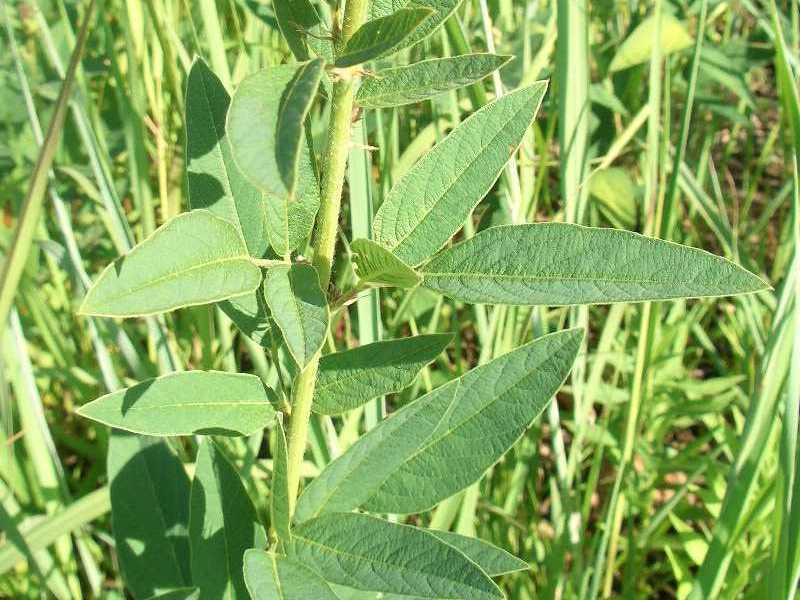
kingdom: Plantae
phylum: Tracheophyta
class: Magnoliopsida
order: Fabales
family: Fabaceae
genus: Desmodium
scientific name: Desmodium canadense
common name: Canada tick-trefoil
